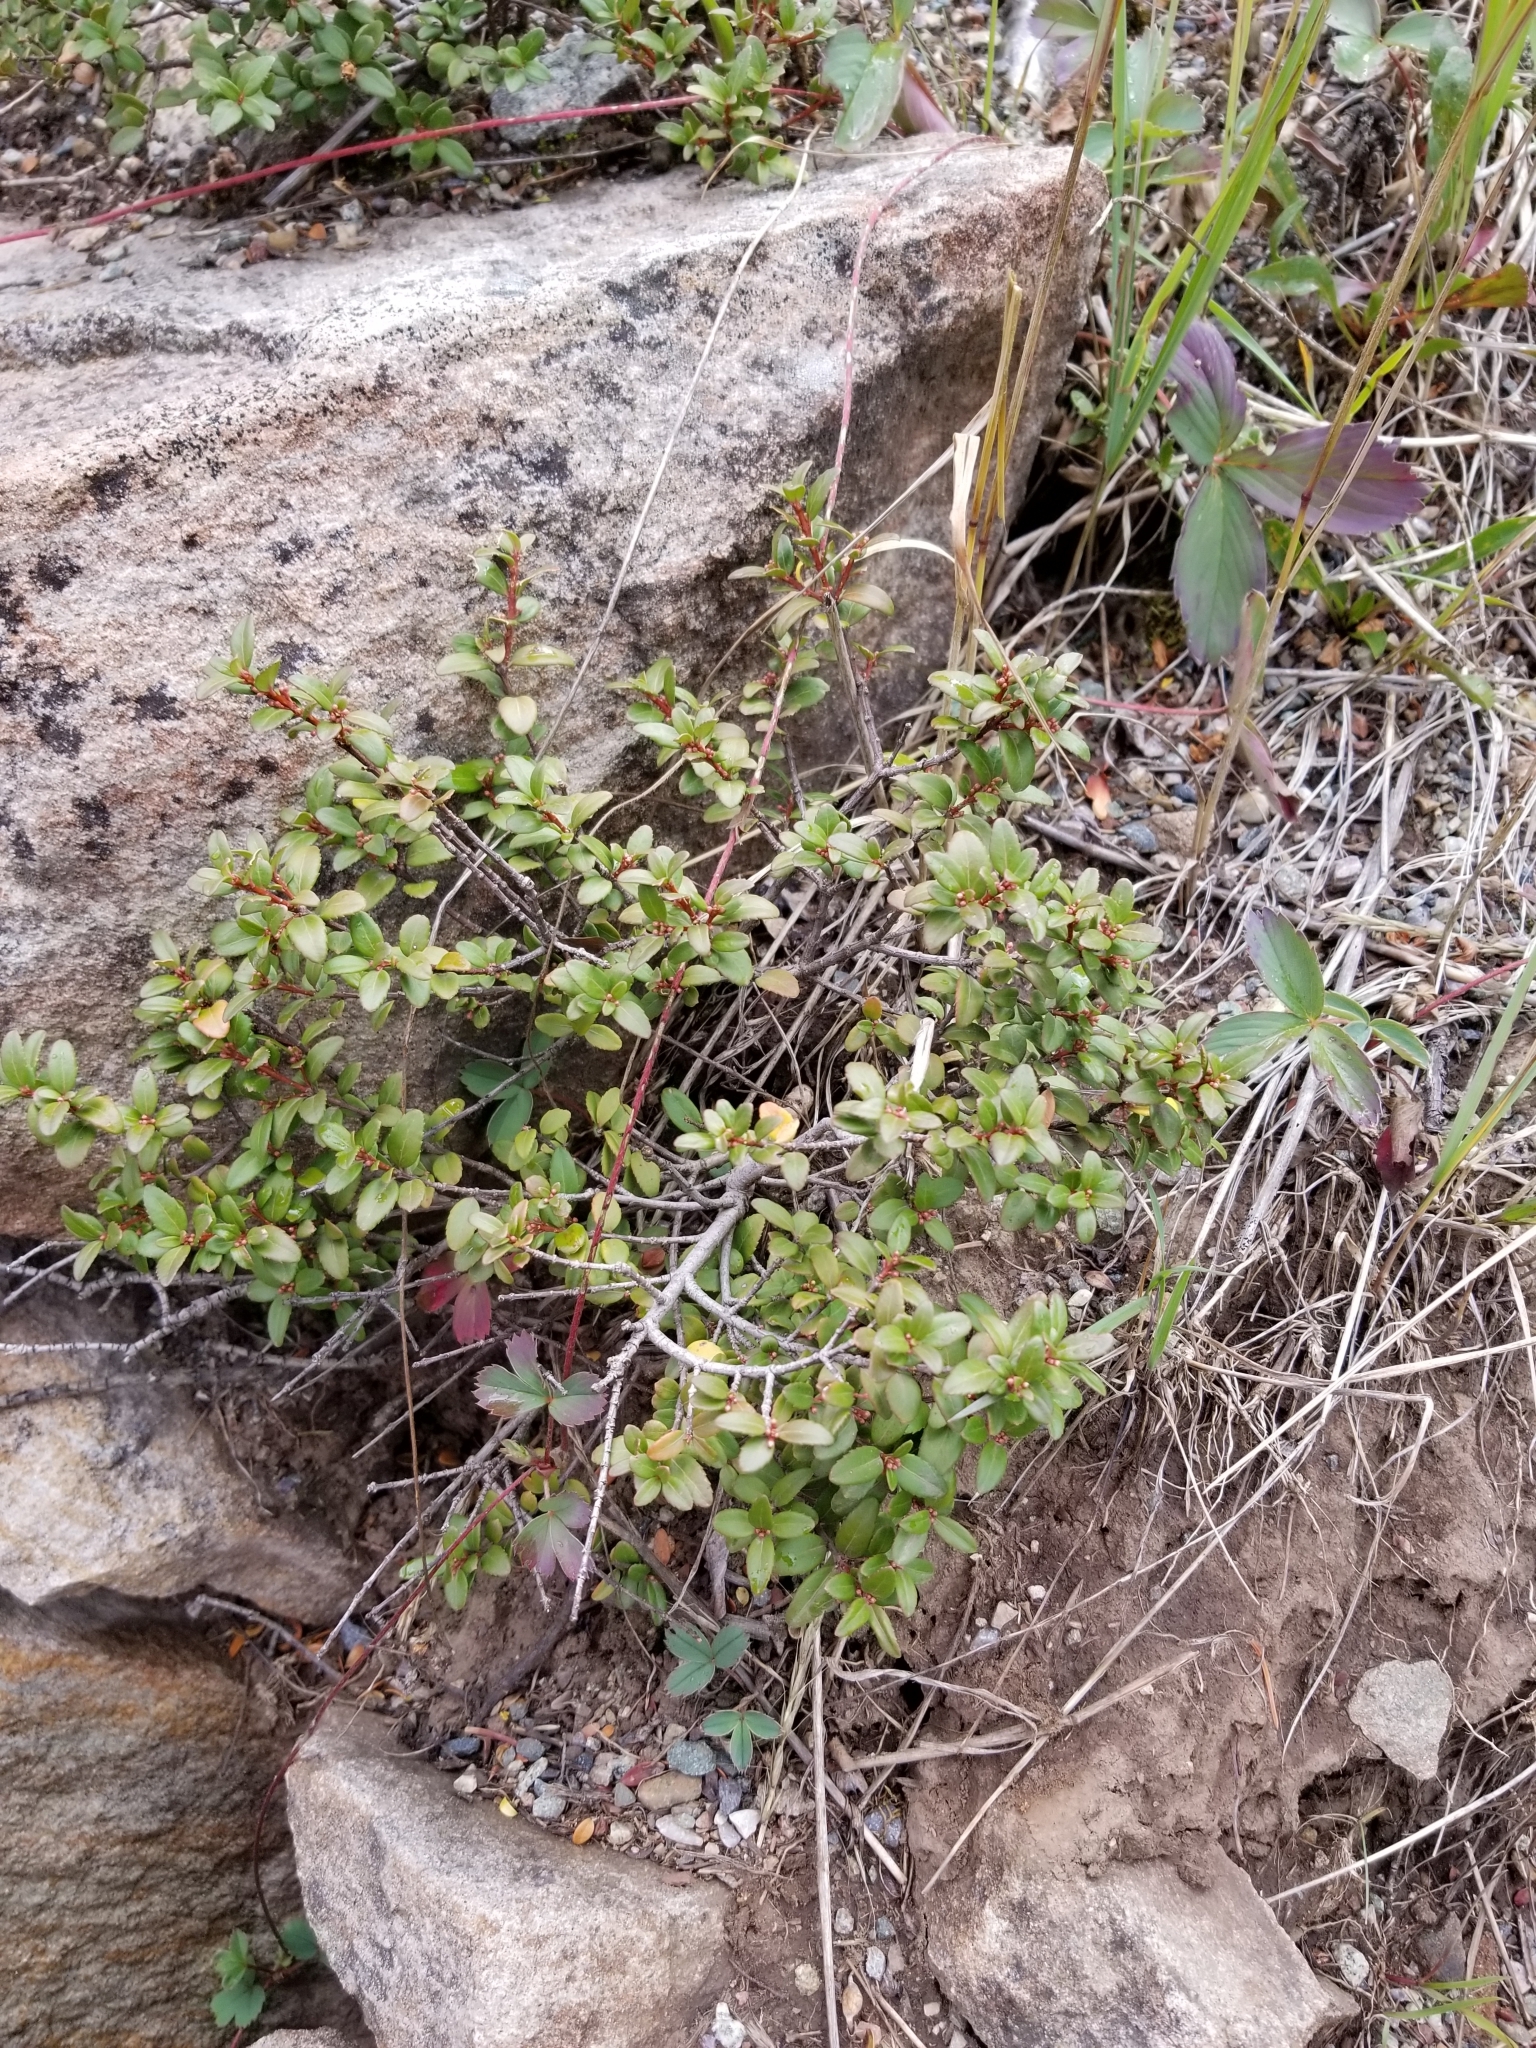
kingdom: Plantae
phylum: Tracheophyta
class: Magnoliopsida
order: Celastrales
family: Celastraceae
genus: Paxistima
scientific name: Paxistima myrsinites
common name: Mountain-lover
